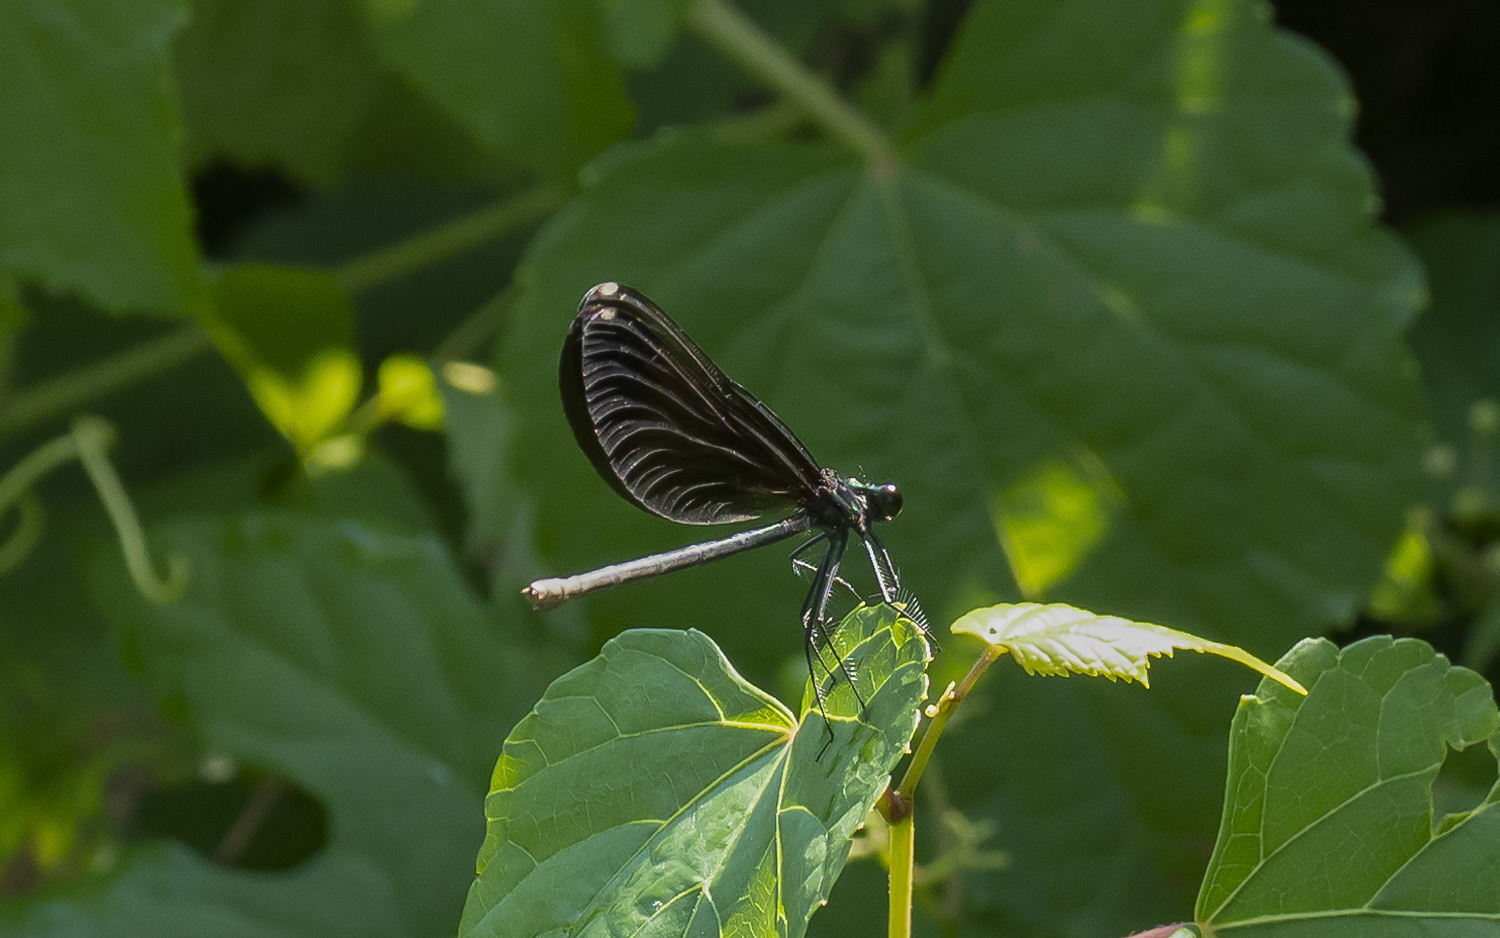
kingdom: Animalia
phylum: Arthropoda
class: Insecta
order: Odonata
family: Calopterygidae
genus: Calopteryx
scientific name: Calopteryx maculata
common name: Ebony jewelwing
